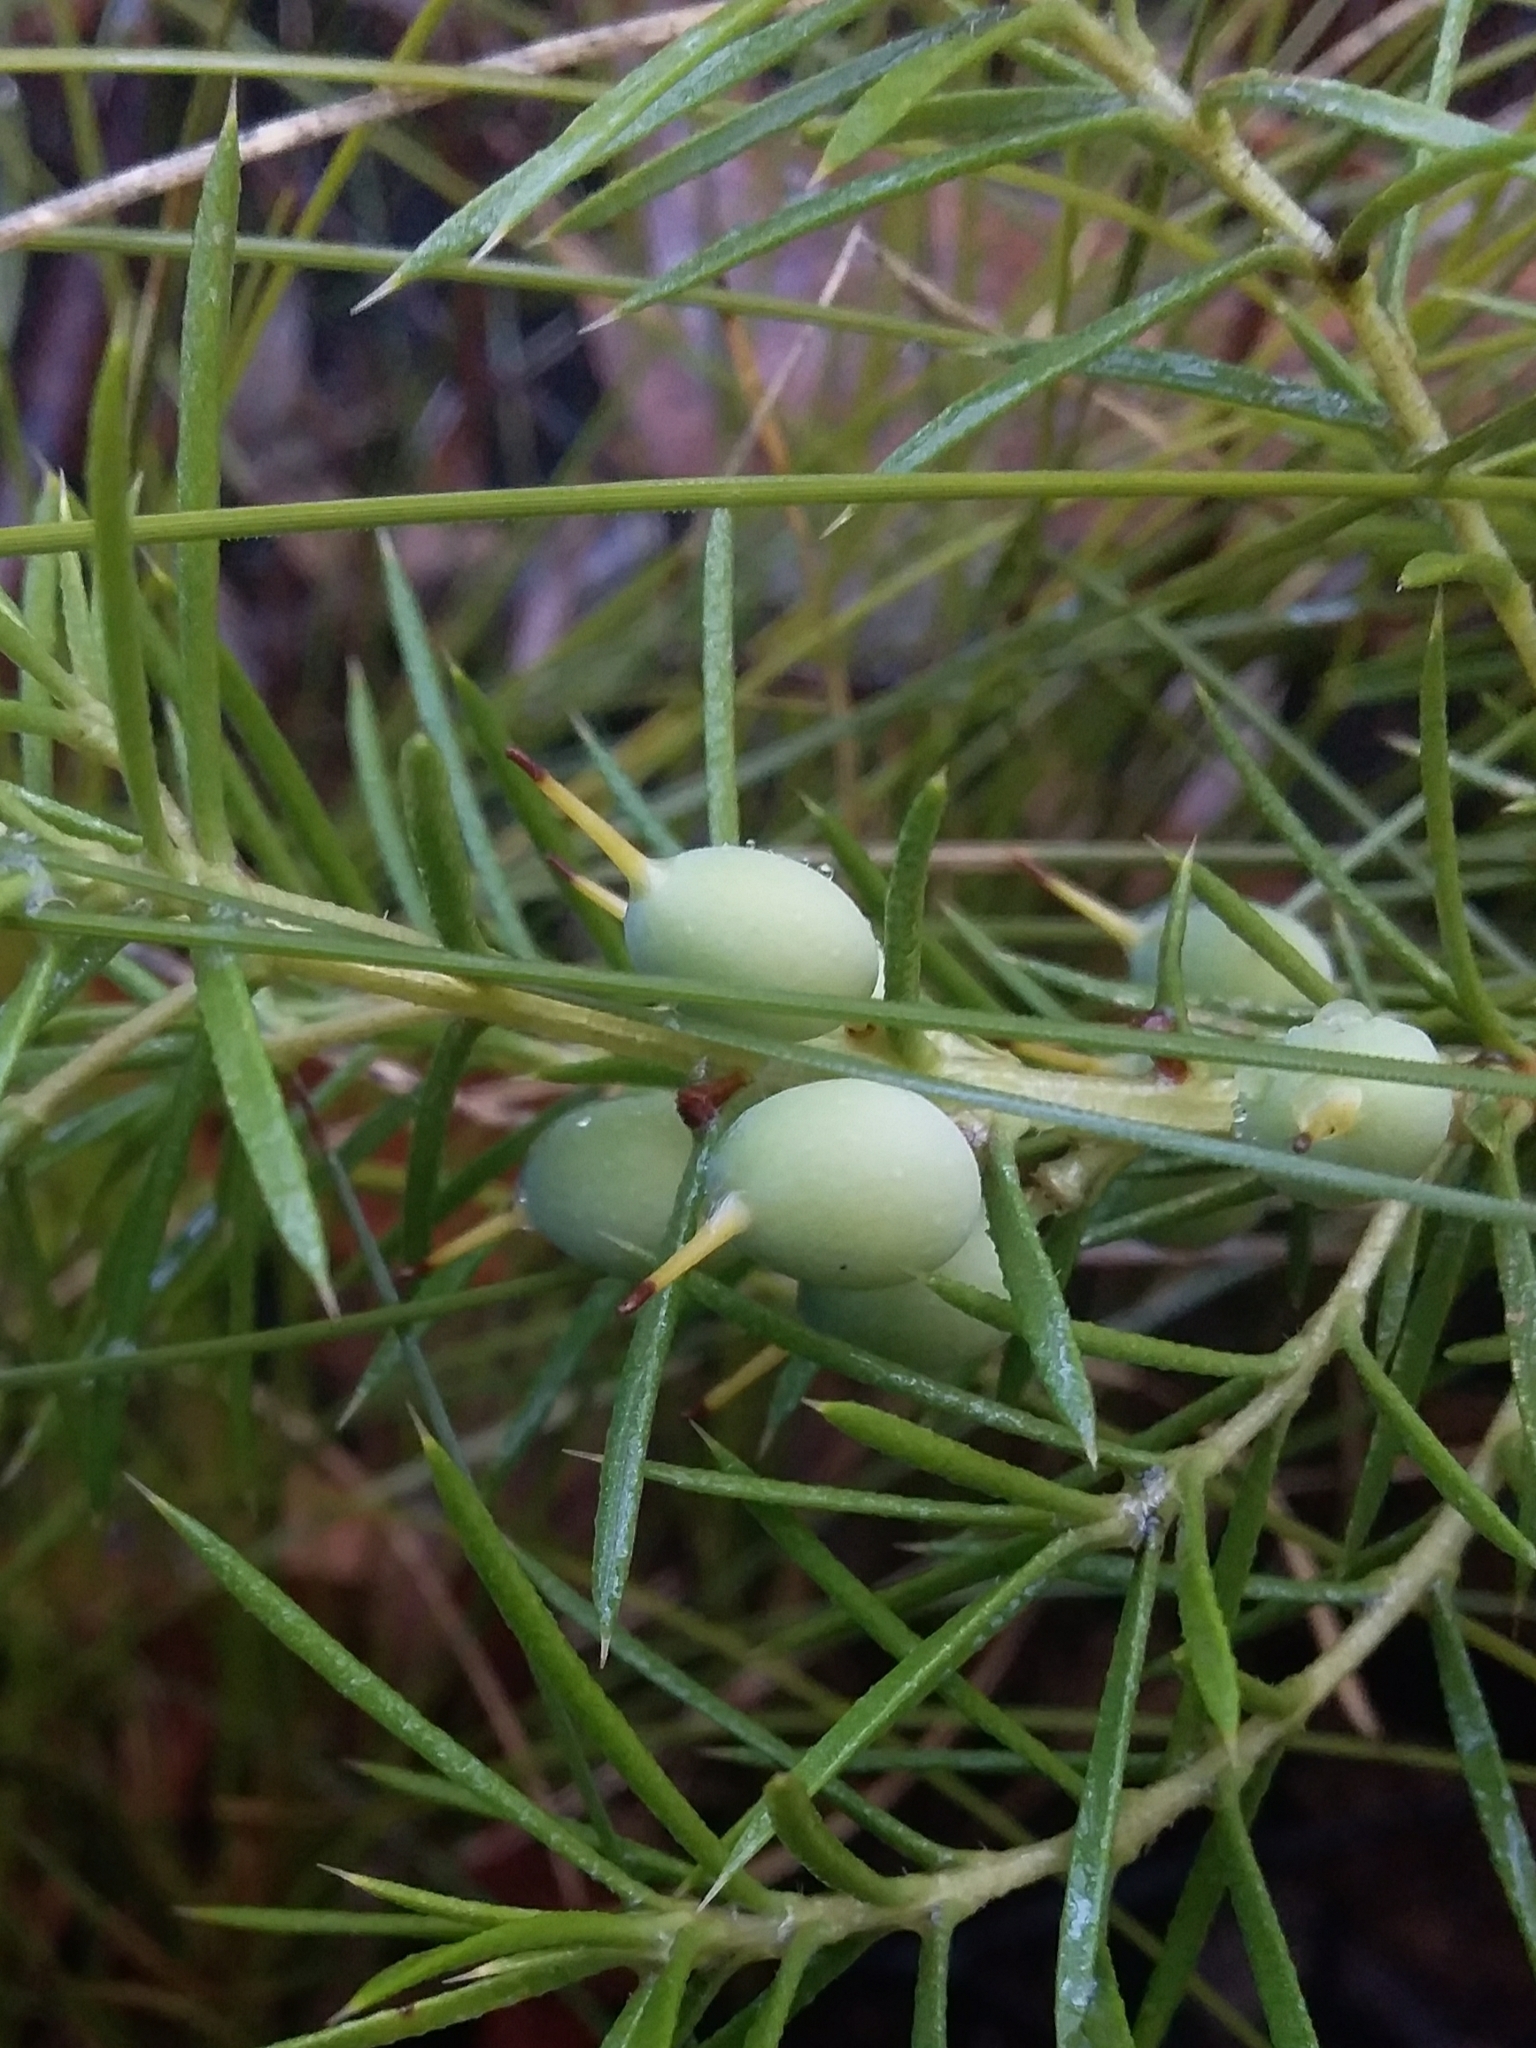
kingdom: Plantae
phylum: Tracheophyta
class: Magnoliopsida
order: Proteales
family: Proteaceae
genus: Persoonia
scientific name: Persoonia juniperina
